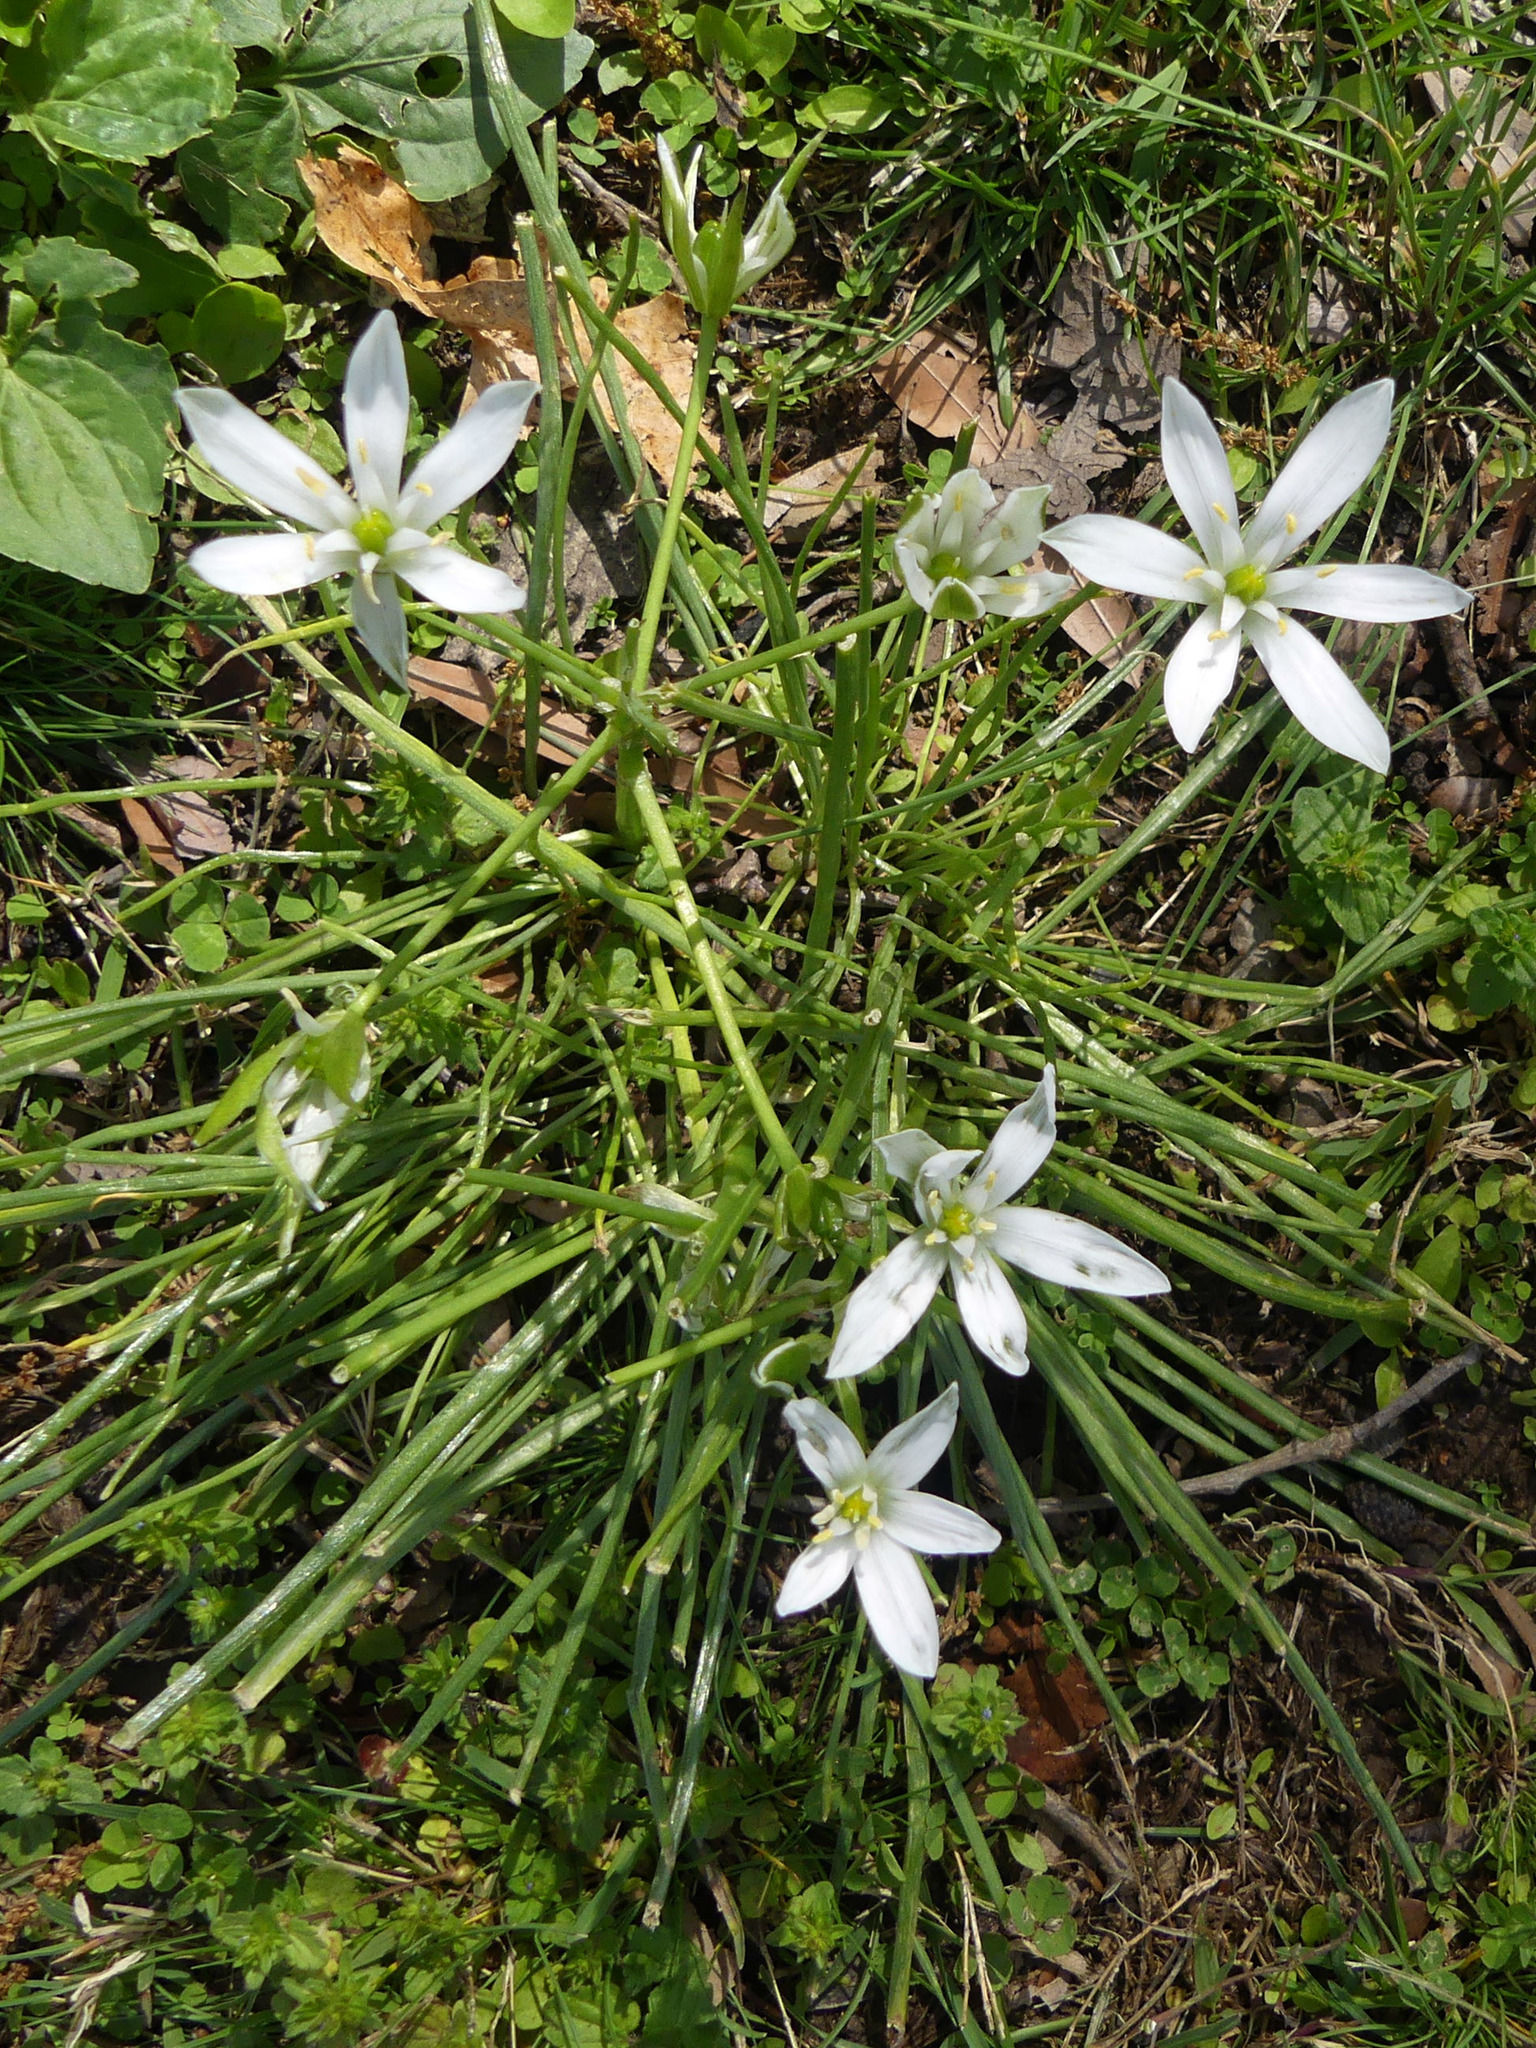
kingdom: Plantae
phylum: Tracheophyta
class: Liliopsida
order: Asparagales
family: Asparagaceae
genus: Ornithogalum
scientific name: Ornithogalum umbellatum
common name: Garden star-of-bethlehem
